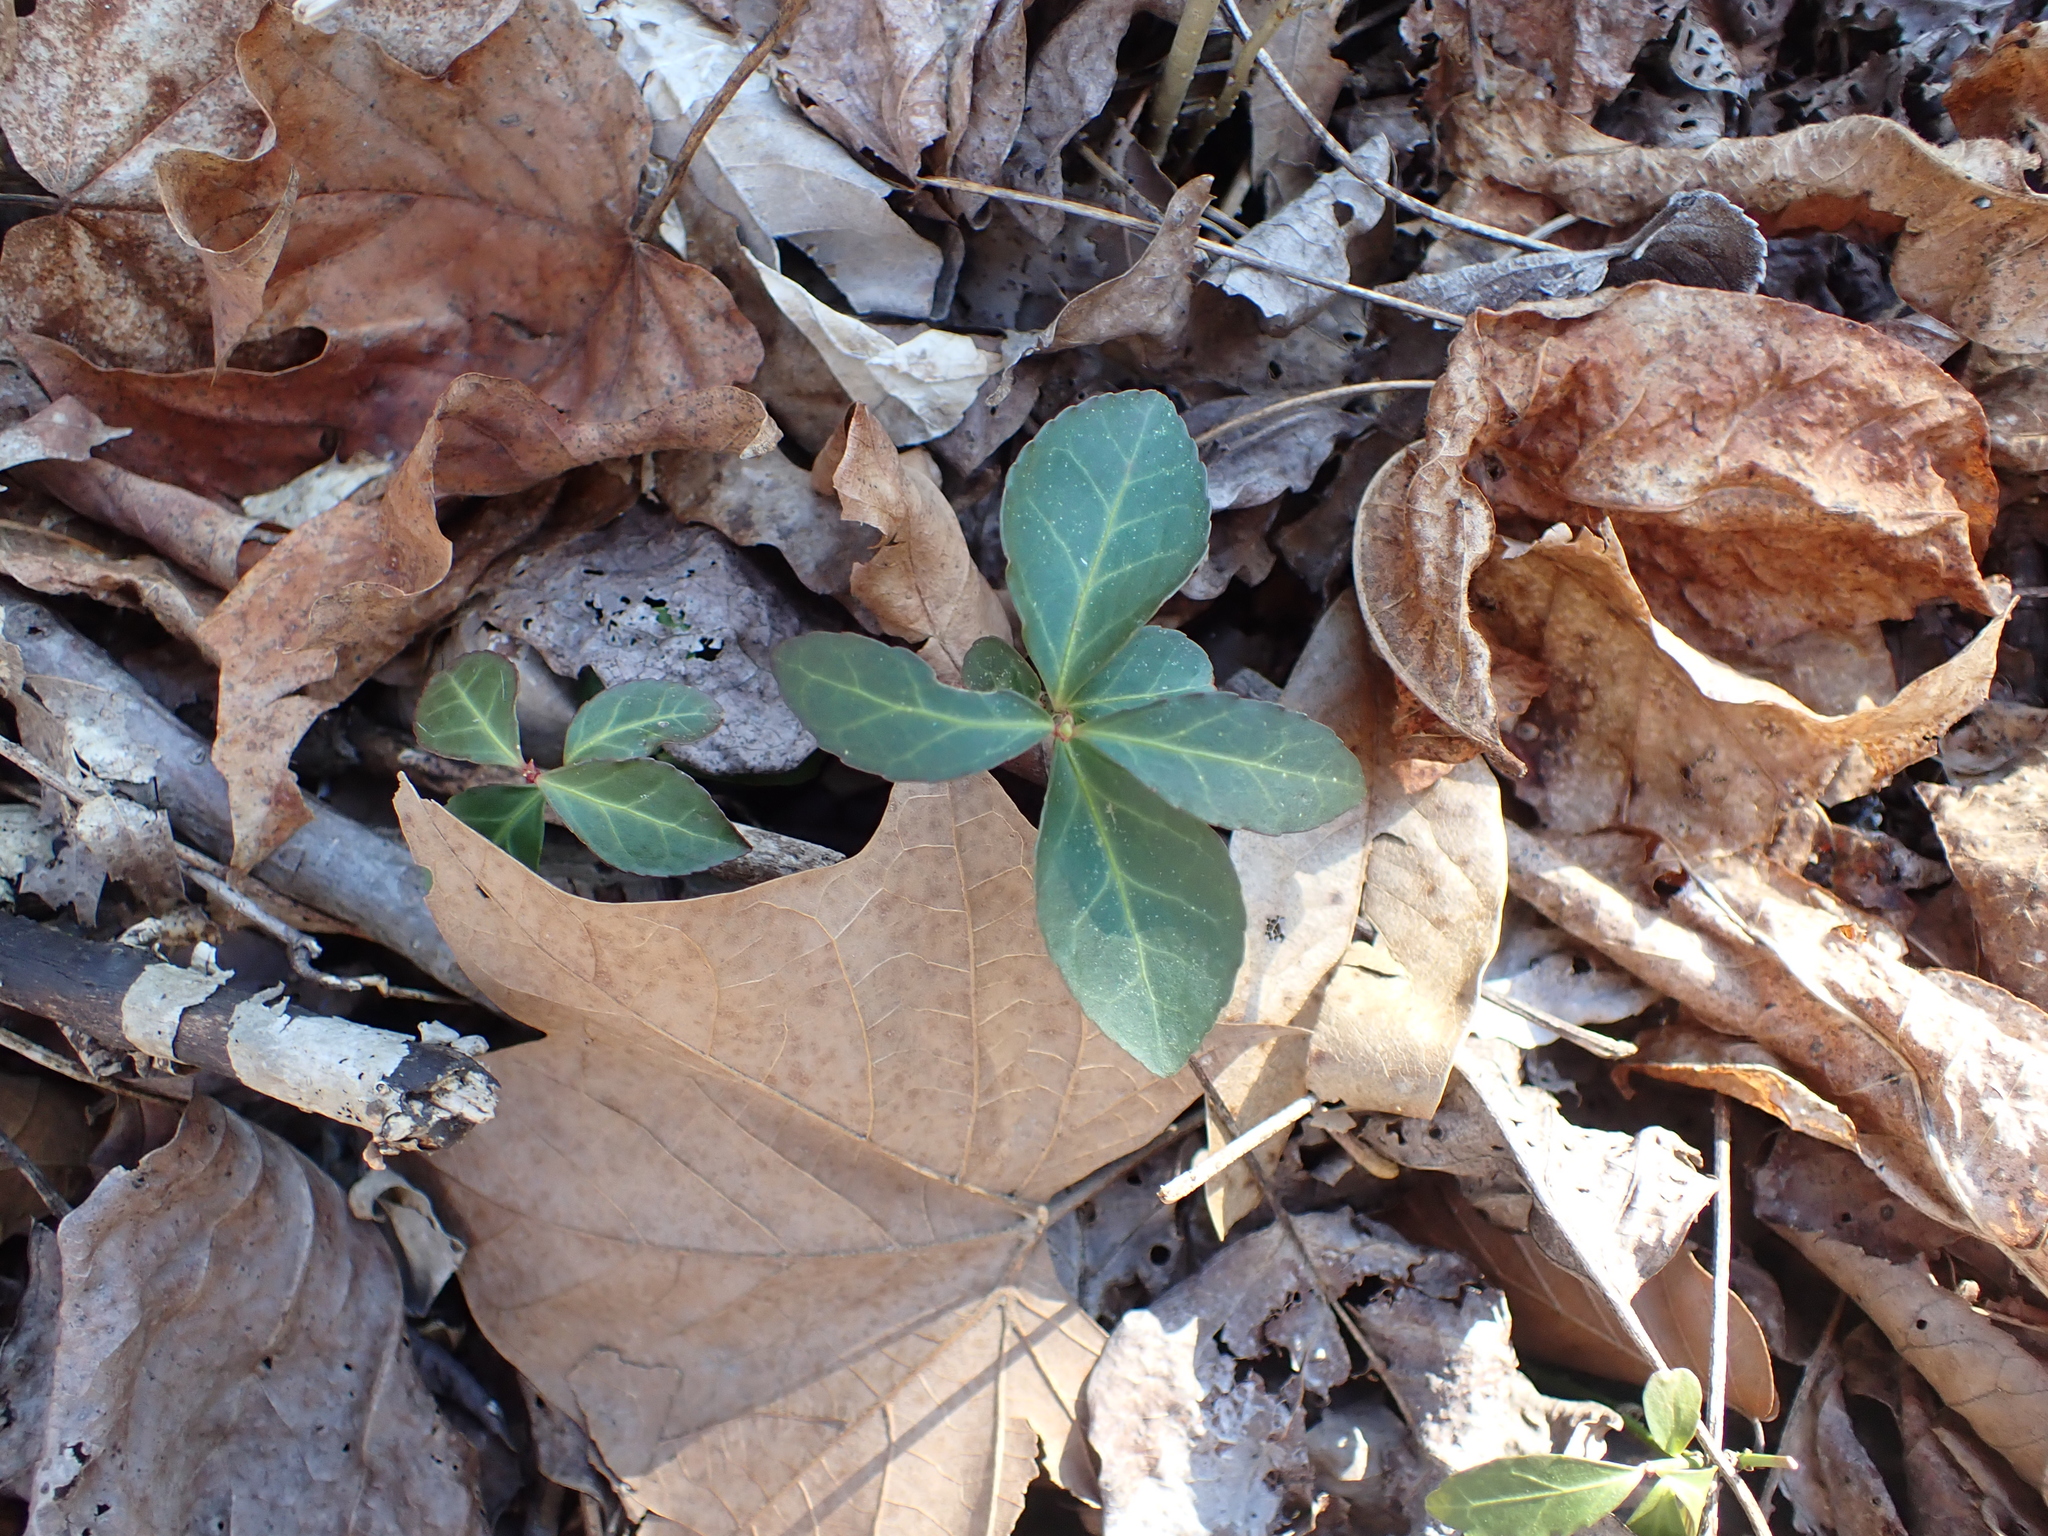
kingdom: Plantae
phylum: Tracheophyta
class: Magnoliopsida
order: Celastrales
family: Celastraceae
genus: Euonymus
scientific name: Euonymus fortunei
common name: Climbing euonymus
